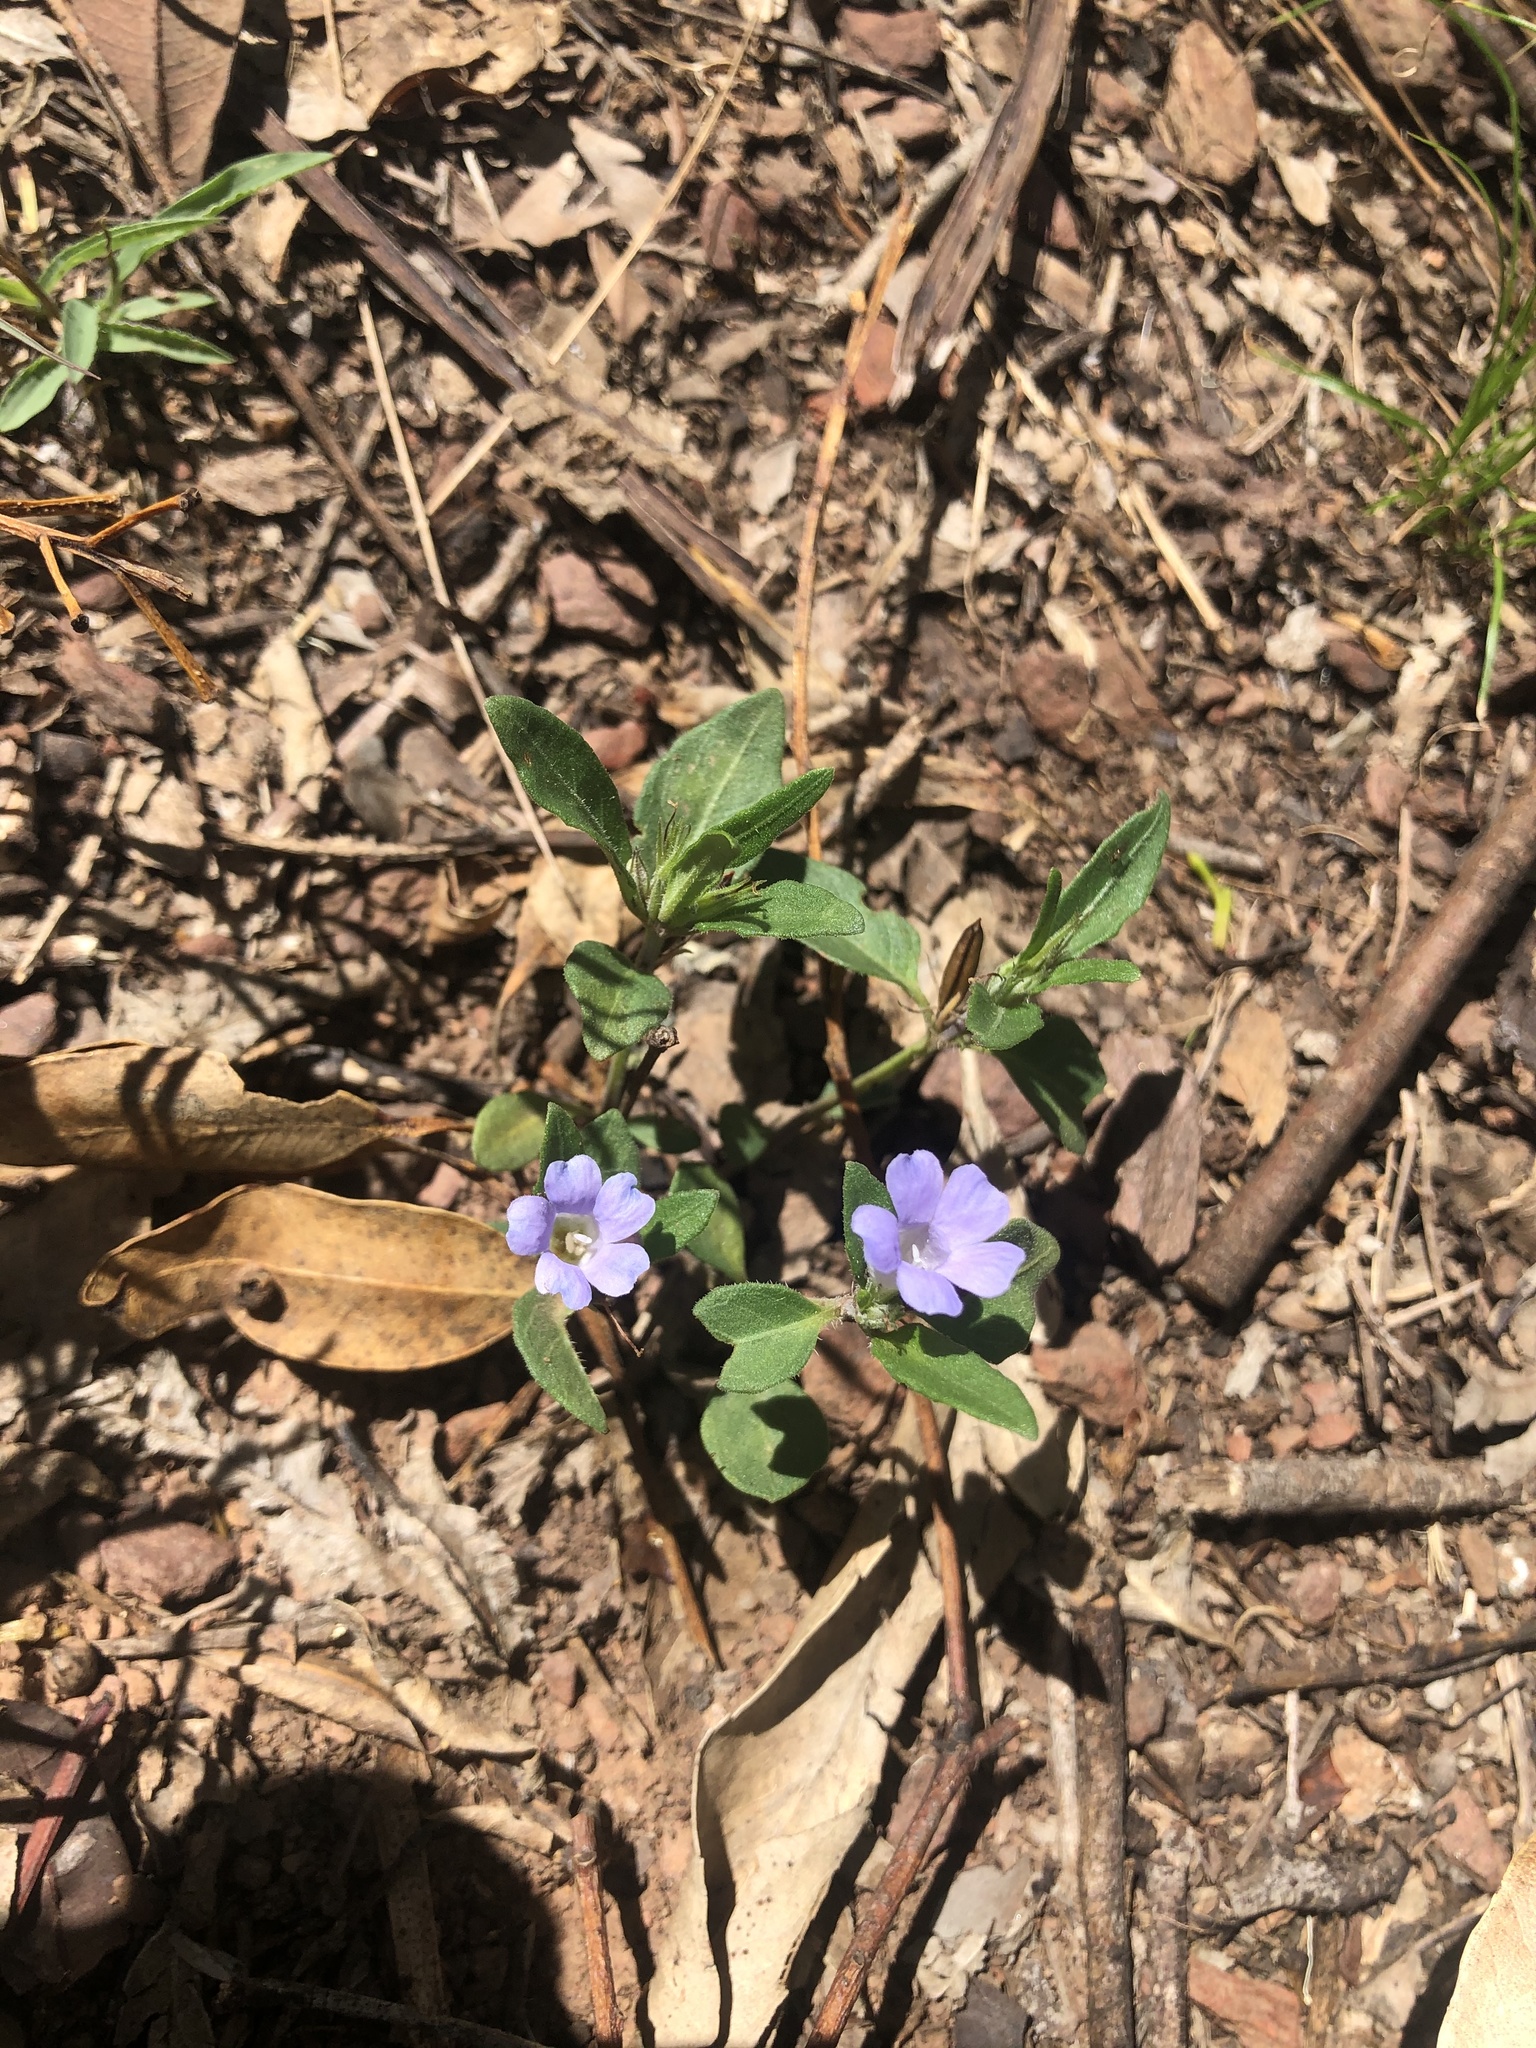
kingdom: Plantae
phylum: Tracheophyta
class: Magnoliopsida
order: Lamiales
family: Acanthaceae
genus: Brunoniella
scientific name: Brunoniella australis
